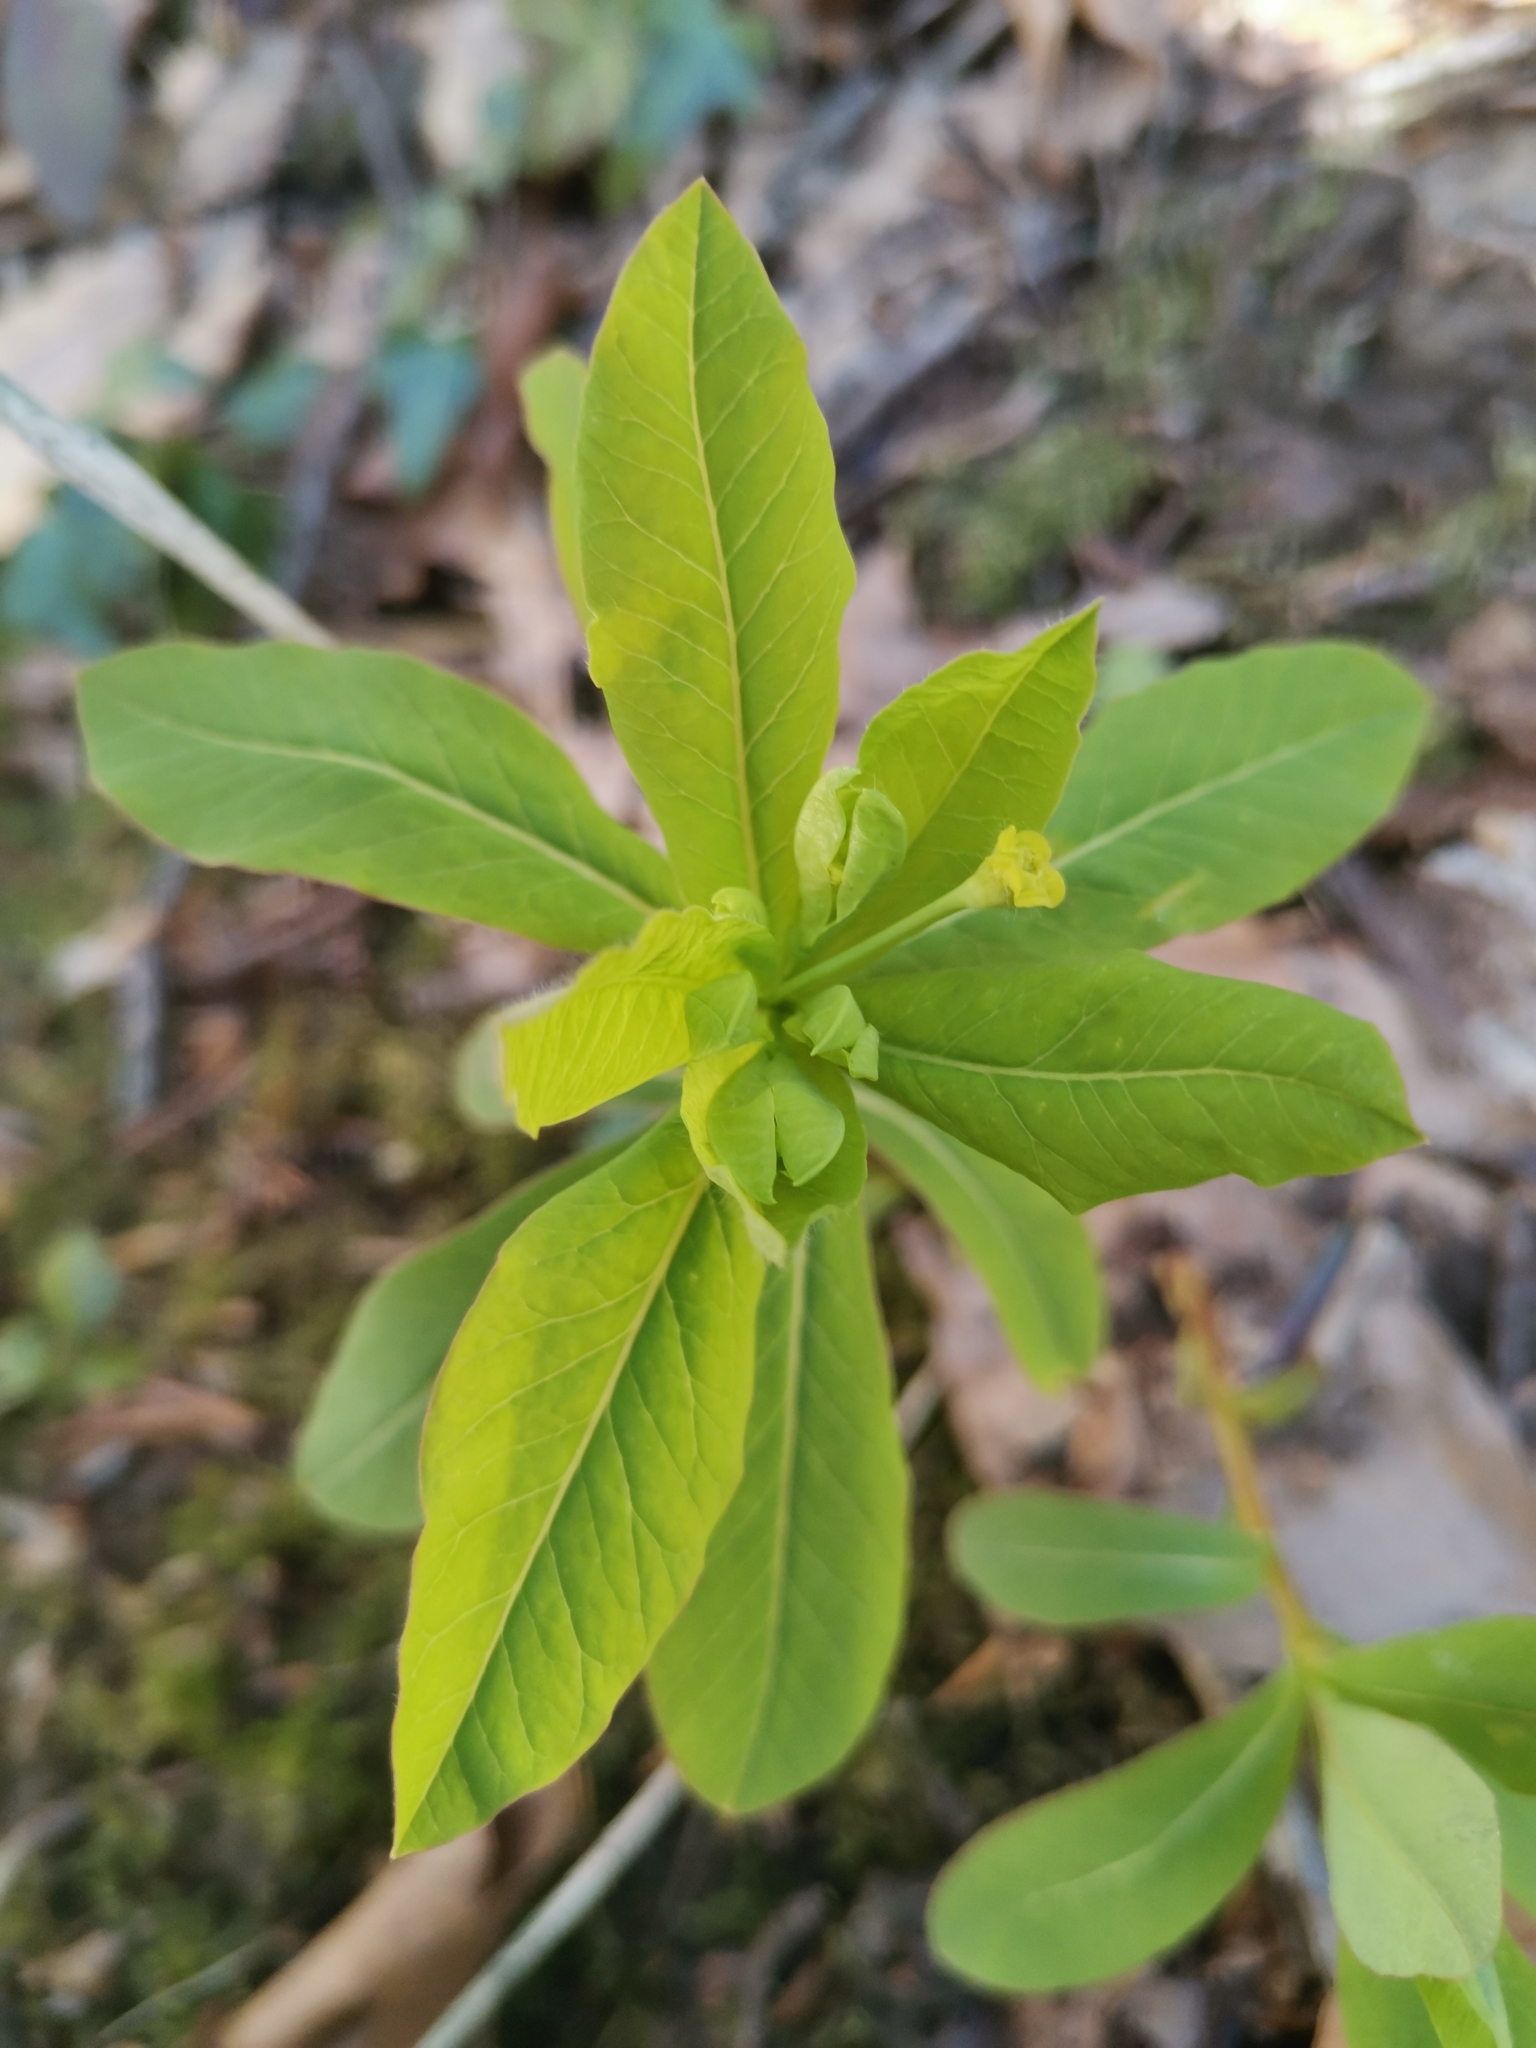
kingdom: Plantae
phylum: Tracheophyta
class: Magnoliopsida
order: Malpighiales
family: Euphorbiaceae
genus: Euphorbia
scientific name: Euphorbia carniolica
